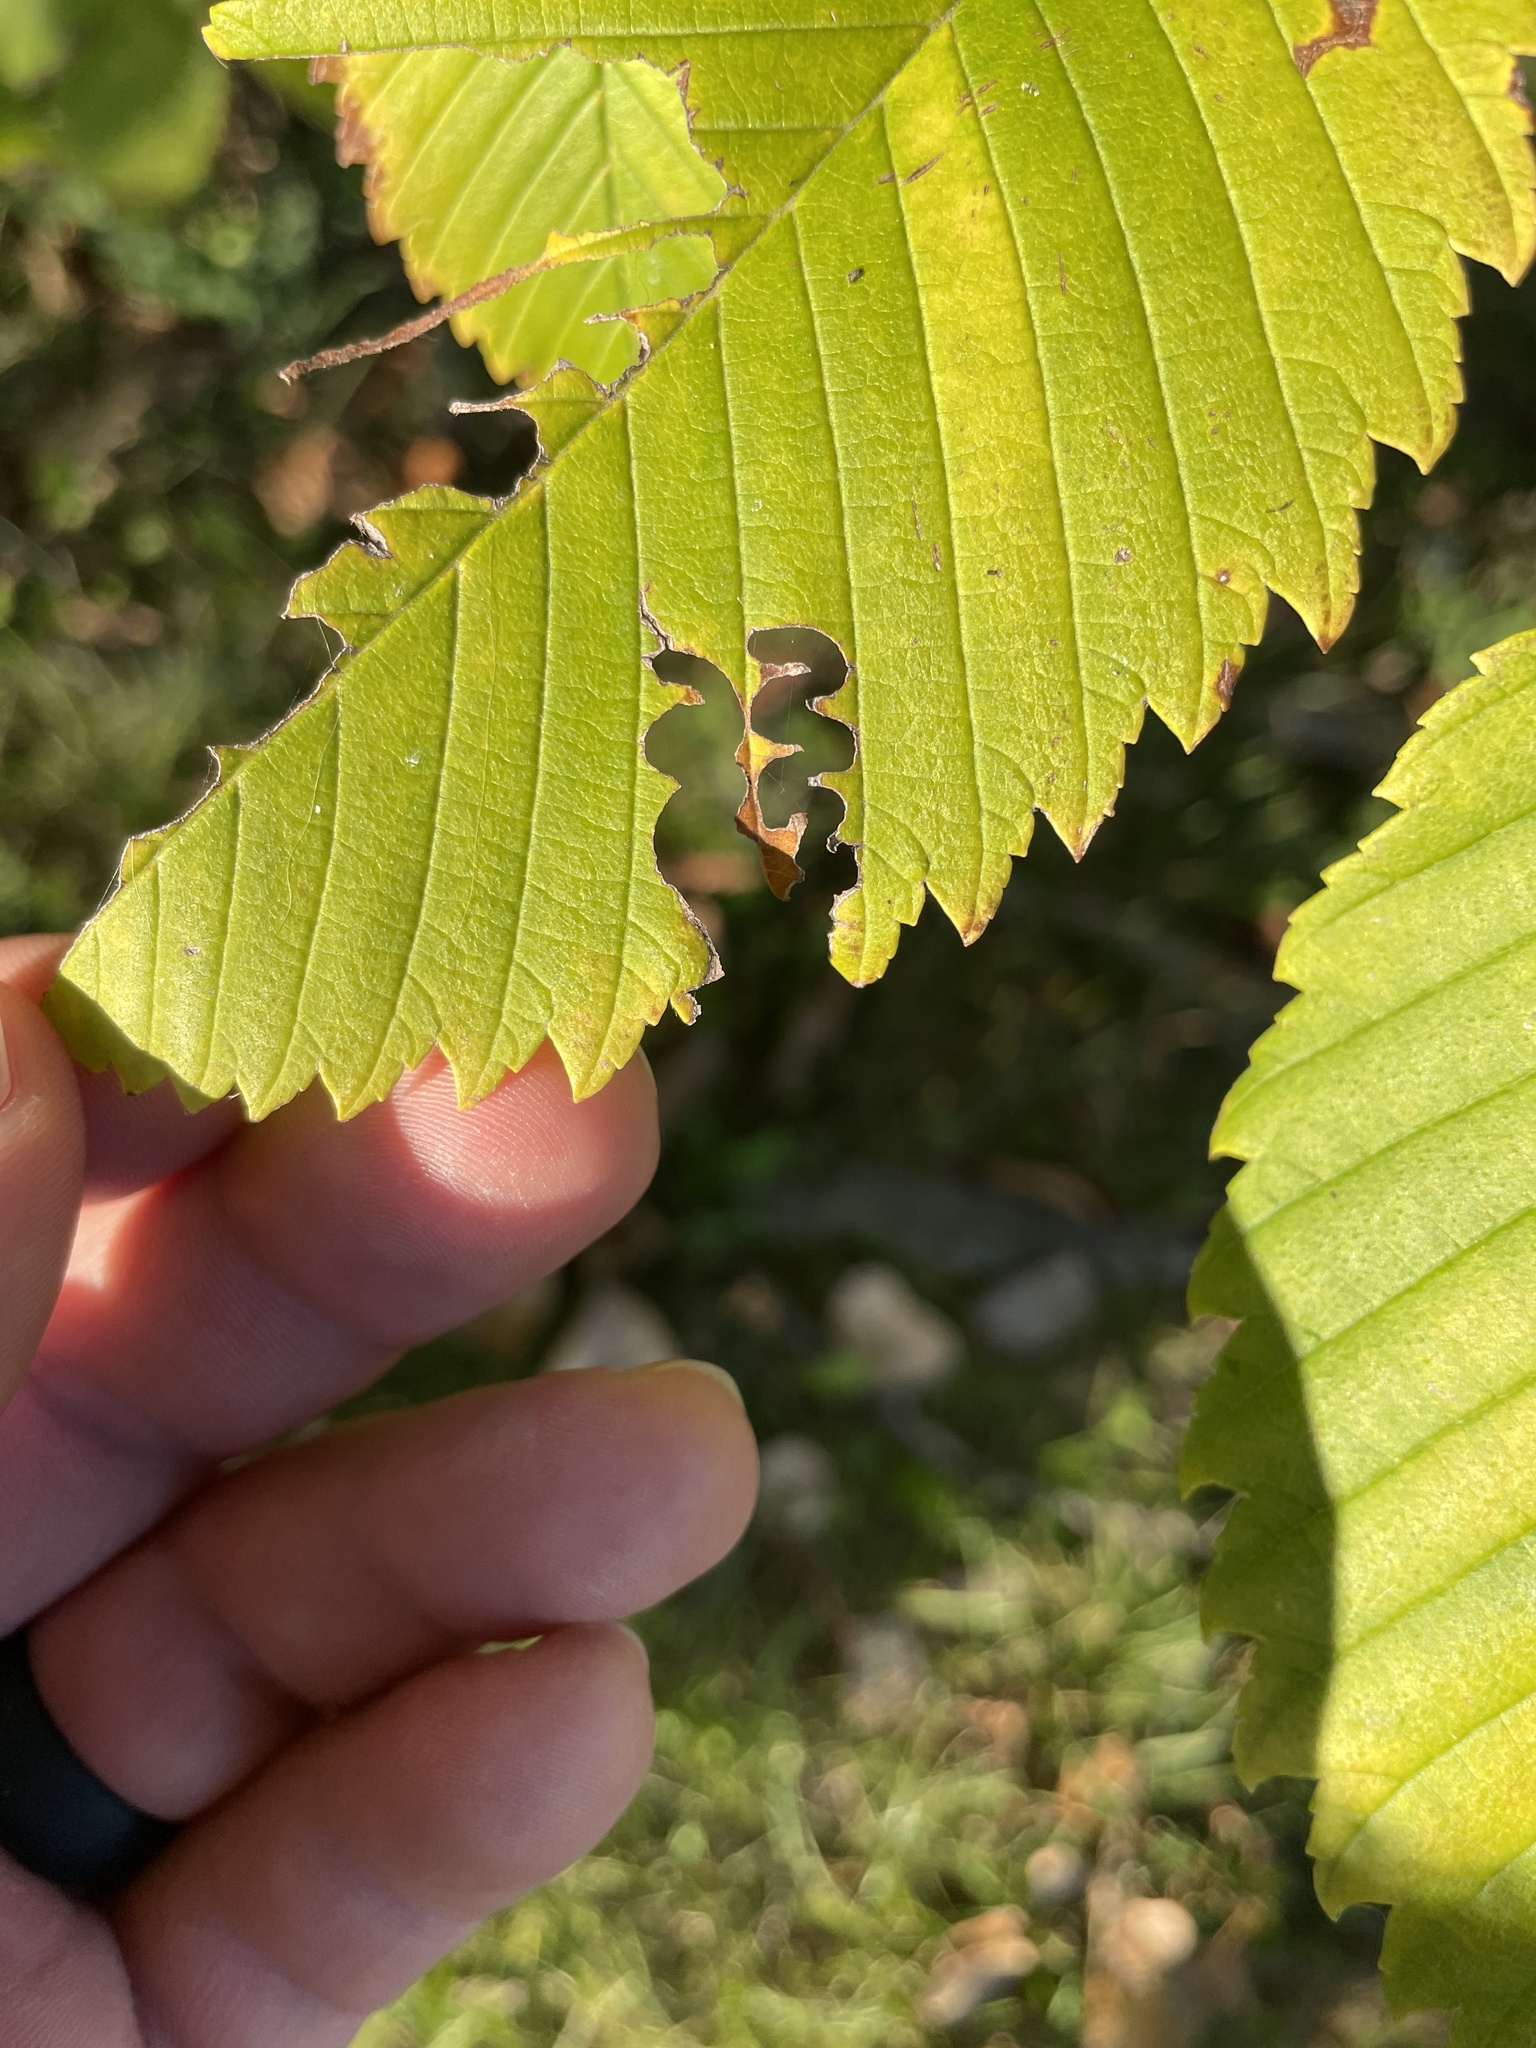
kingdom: Animalia
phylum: Arthropoda
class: Insecta
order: Hymenoptera
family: Argidae
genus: Aproceros
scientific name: Aproceros leucopoda
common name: Zig-zag elm sawfly
